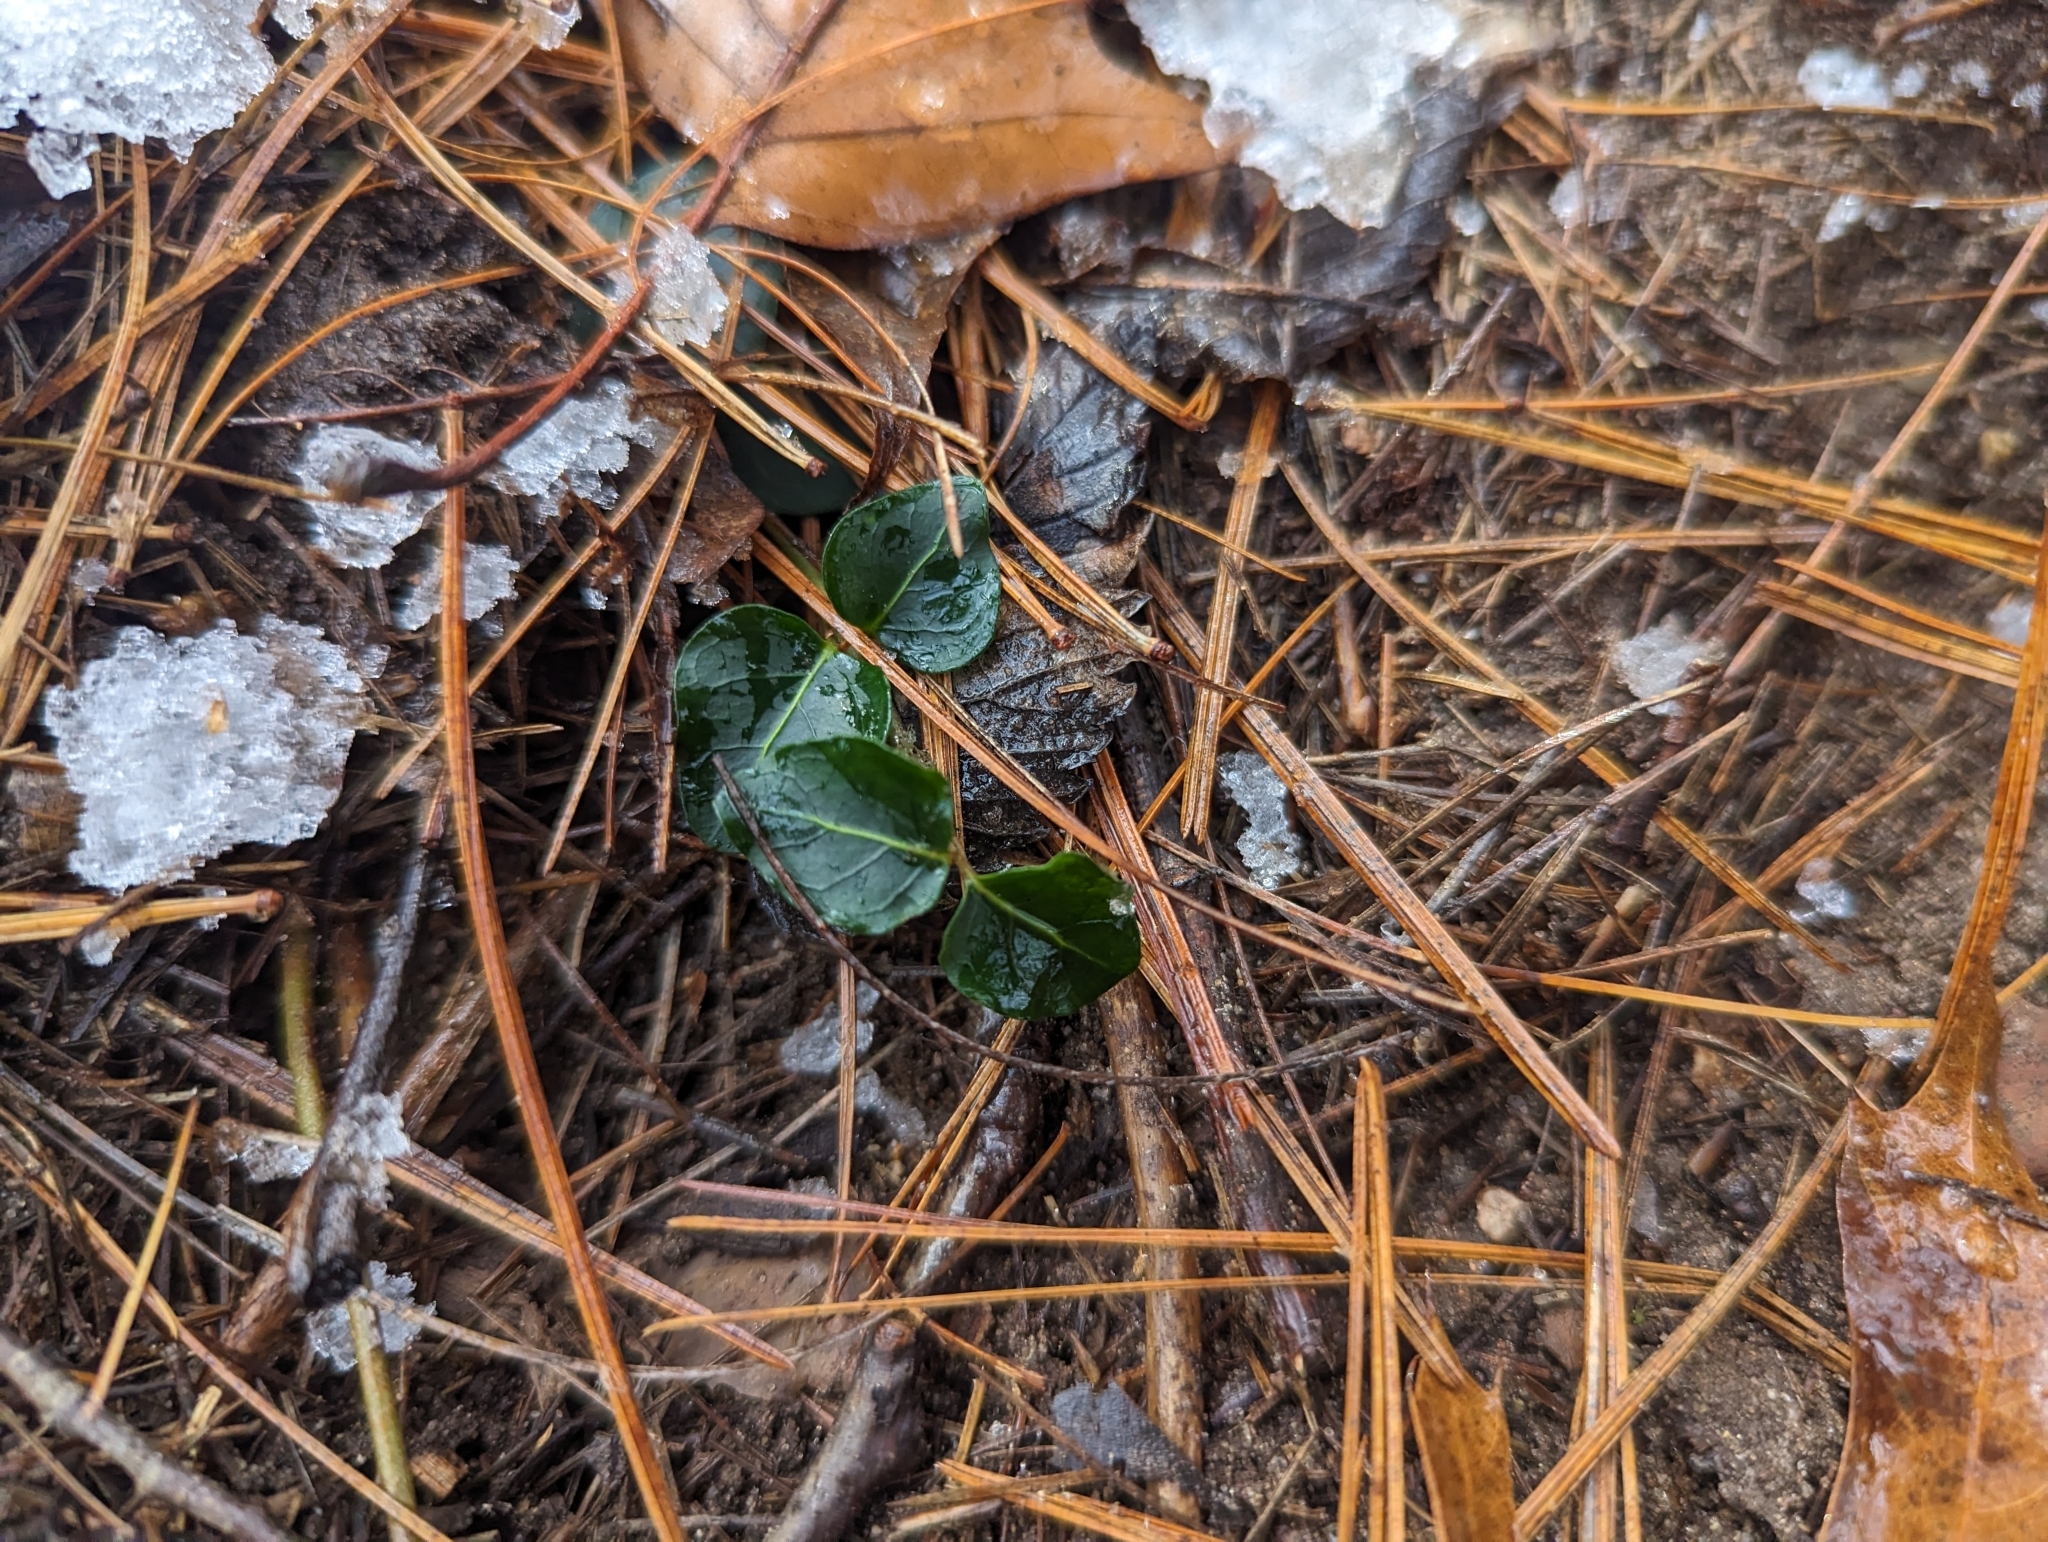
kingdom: Plantae
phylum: Tracheophyta
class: Magnoliopsida
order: Gentianales
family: Rubiaceae
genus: Mitchella
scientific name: Mitchella repens
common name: Partridge-berry
